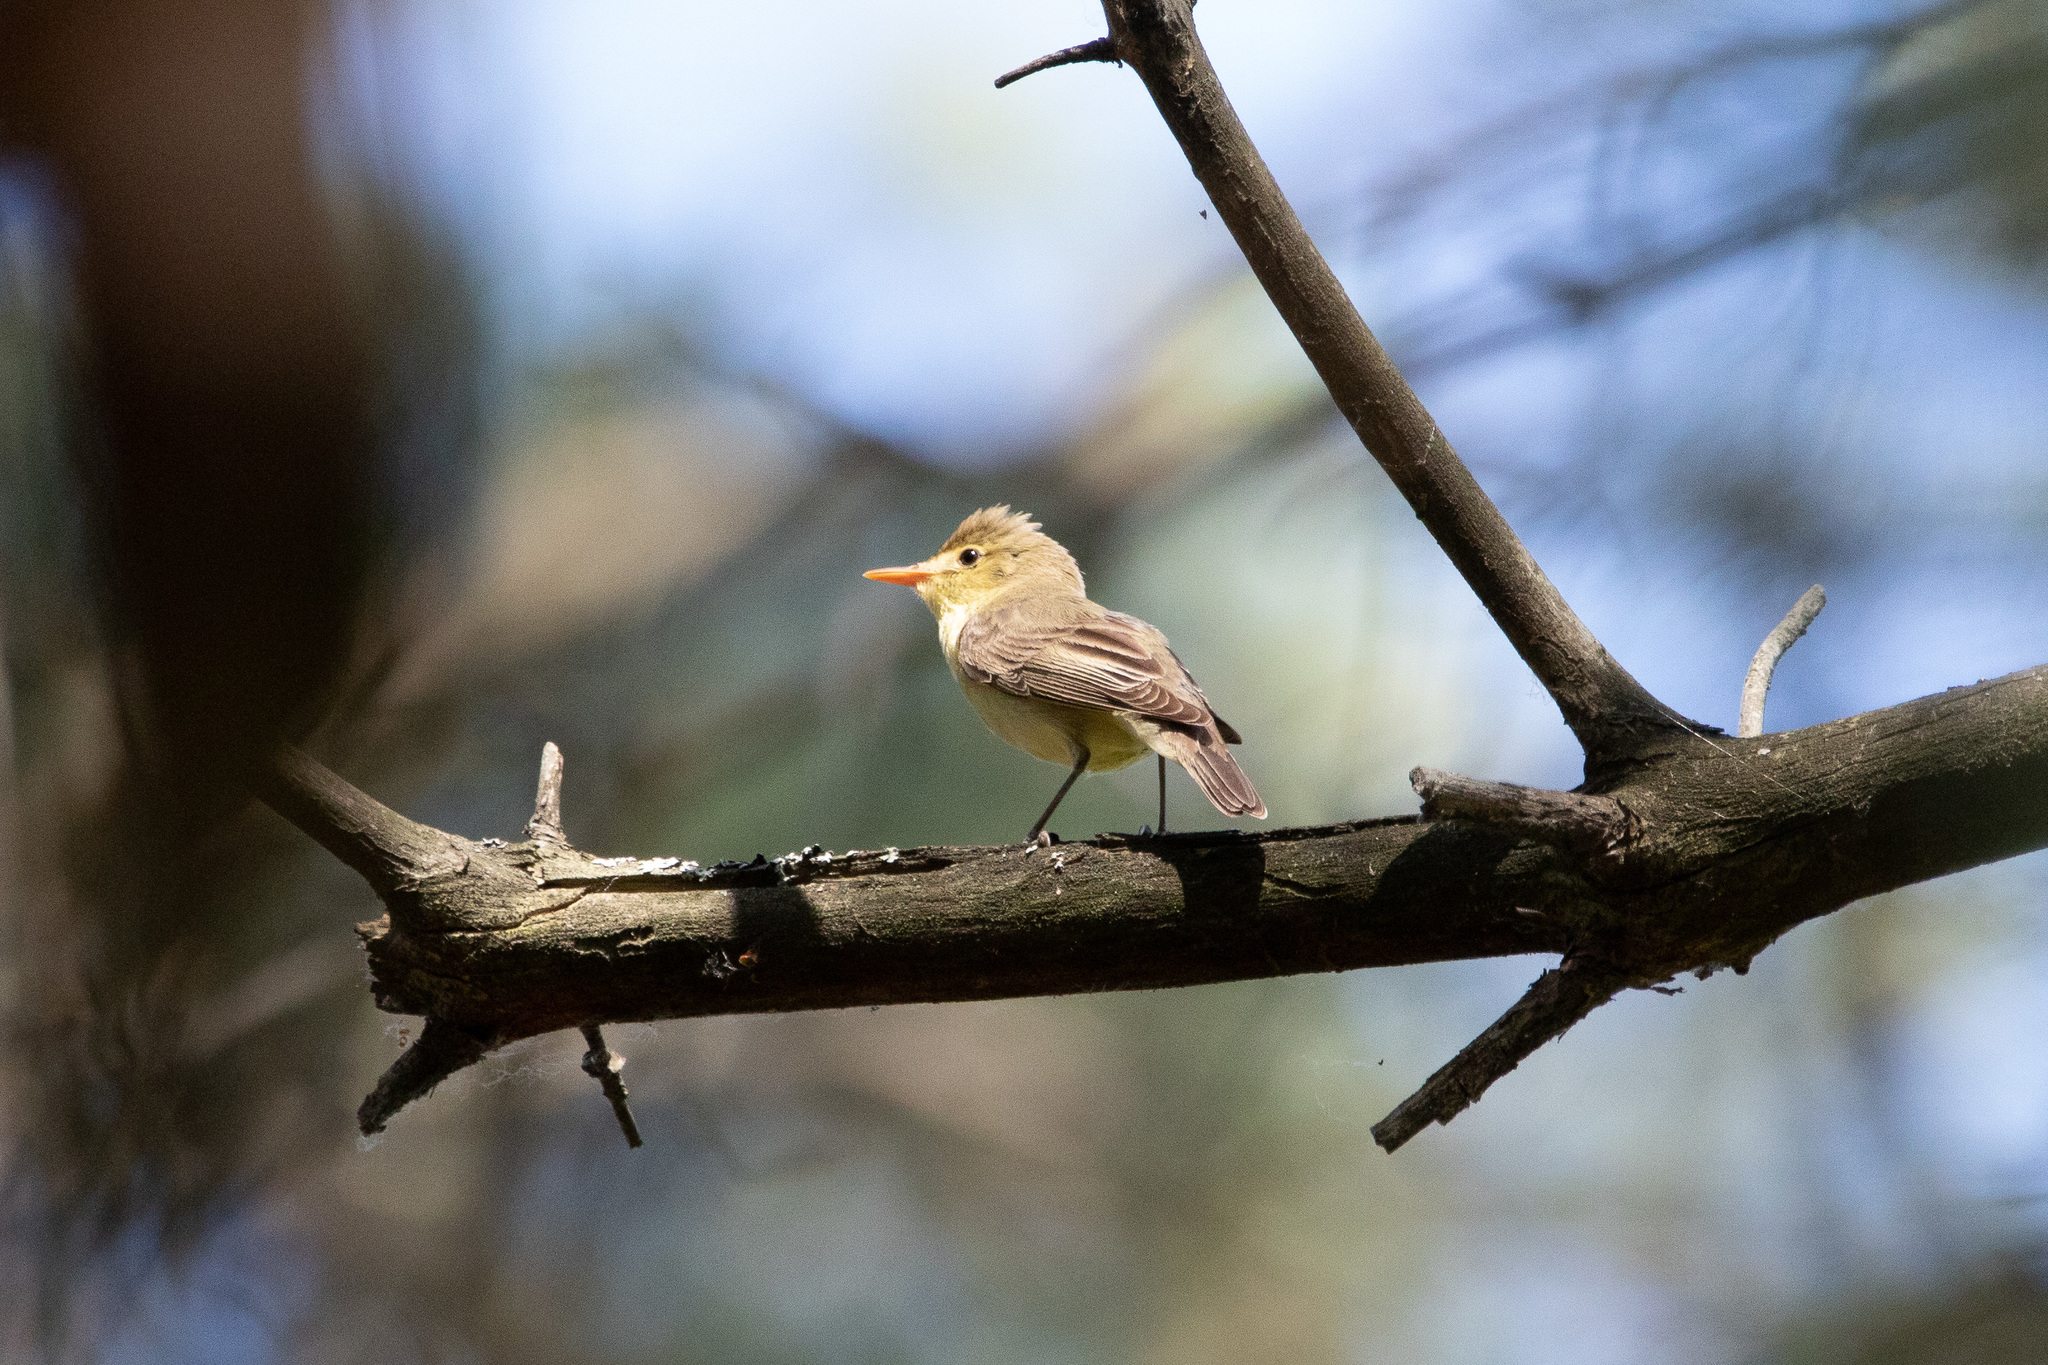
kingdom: Animalia
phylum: Chordata
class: Aves
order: Passeriformes
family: Acrocephalidae
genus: Hippolais
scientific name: Hippolais icterina
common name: Icterine warbler
